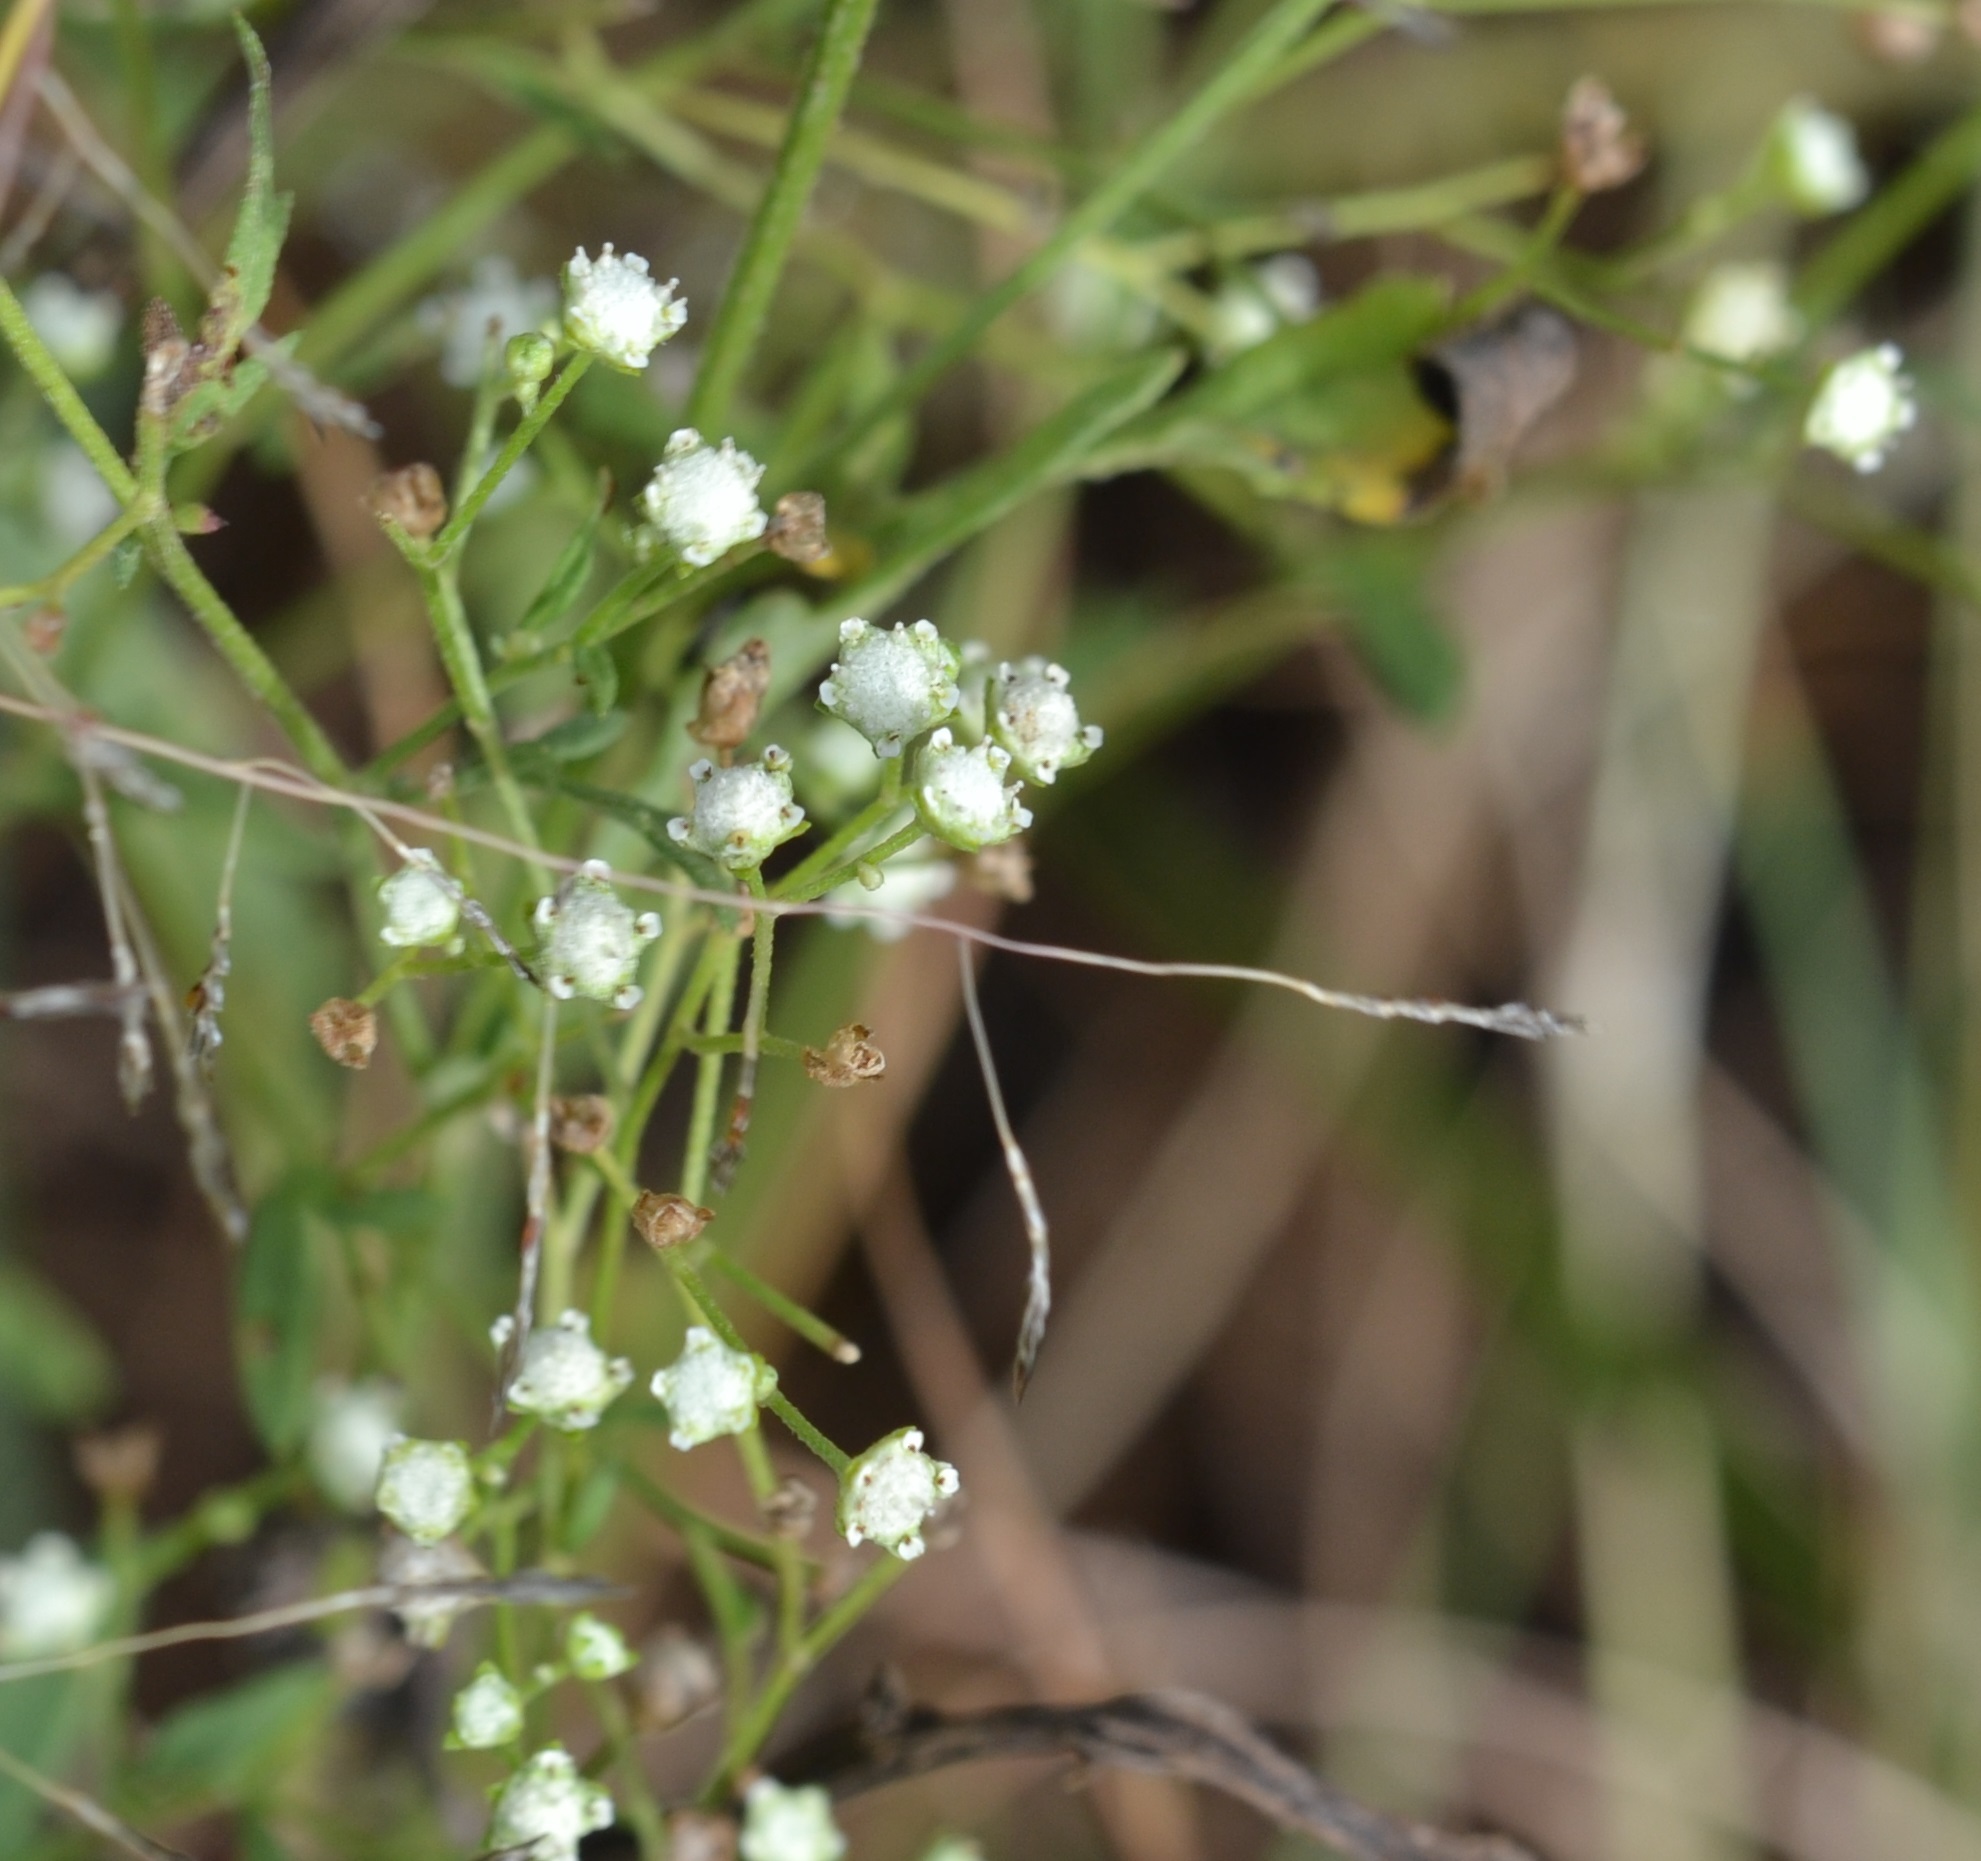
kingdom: Plantae
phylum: Tracheophyta
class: Magnoliopsida
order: Asterales
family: Asteraceae
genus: Parthenium
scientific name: Parthenium hysterophorus
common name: Santa maria feverfew
